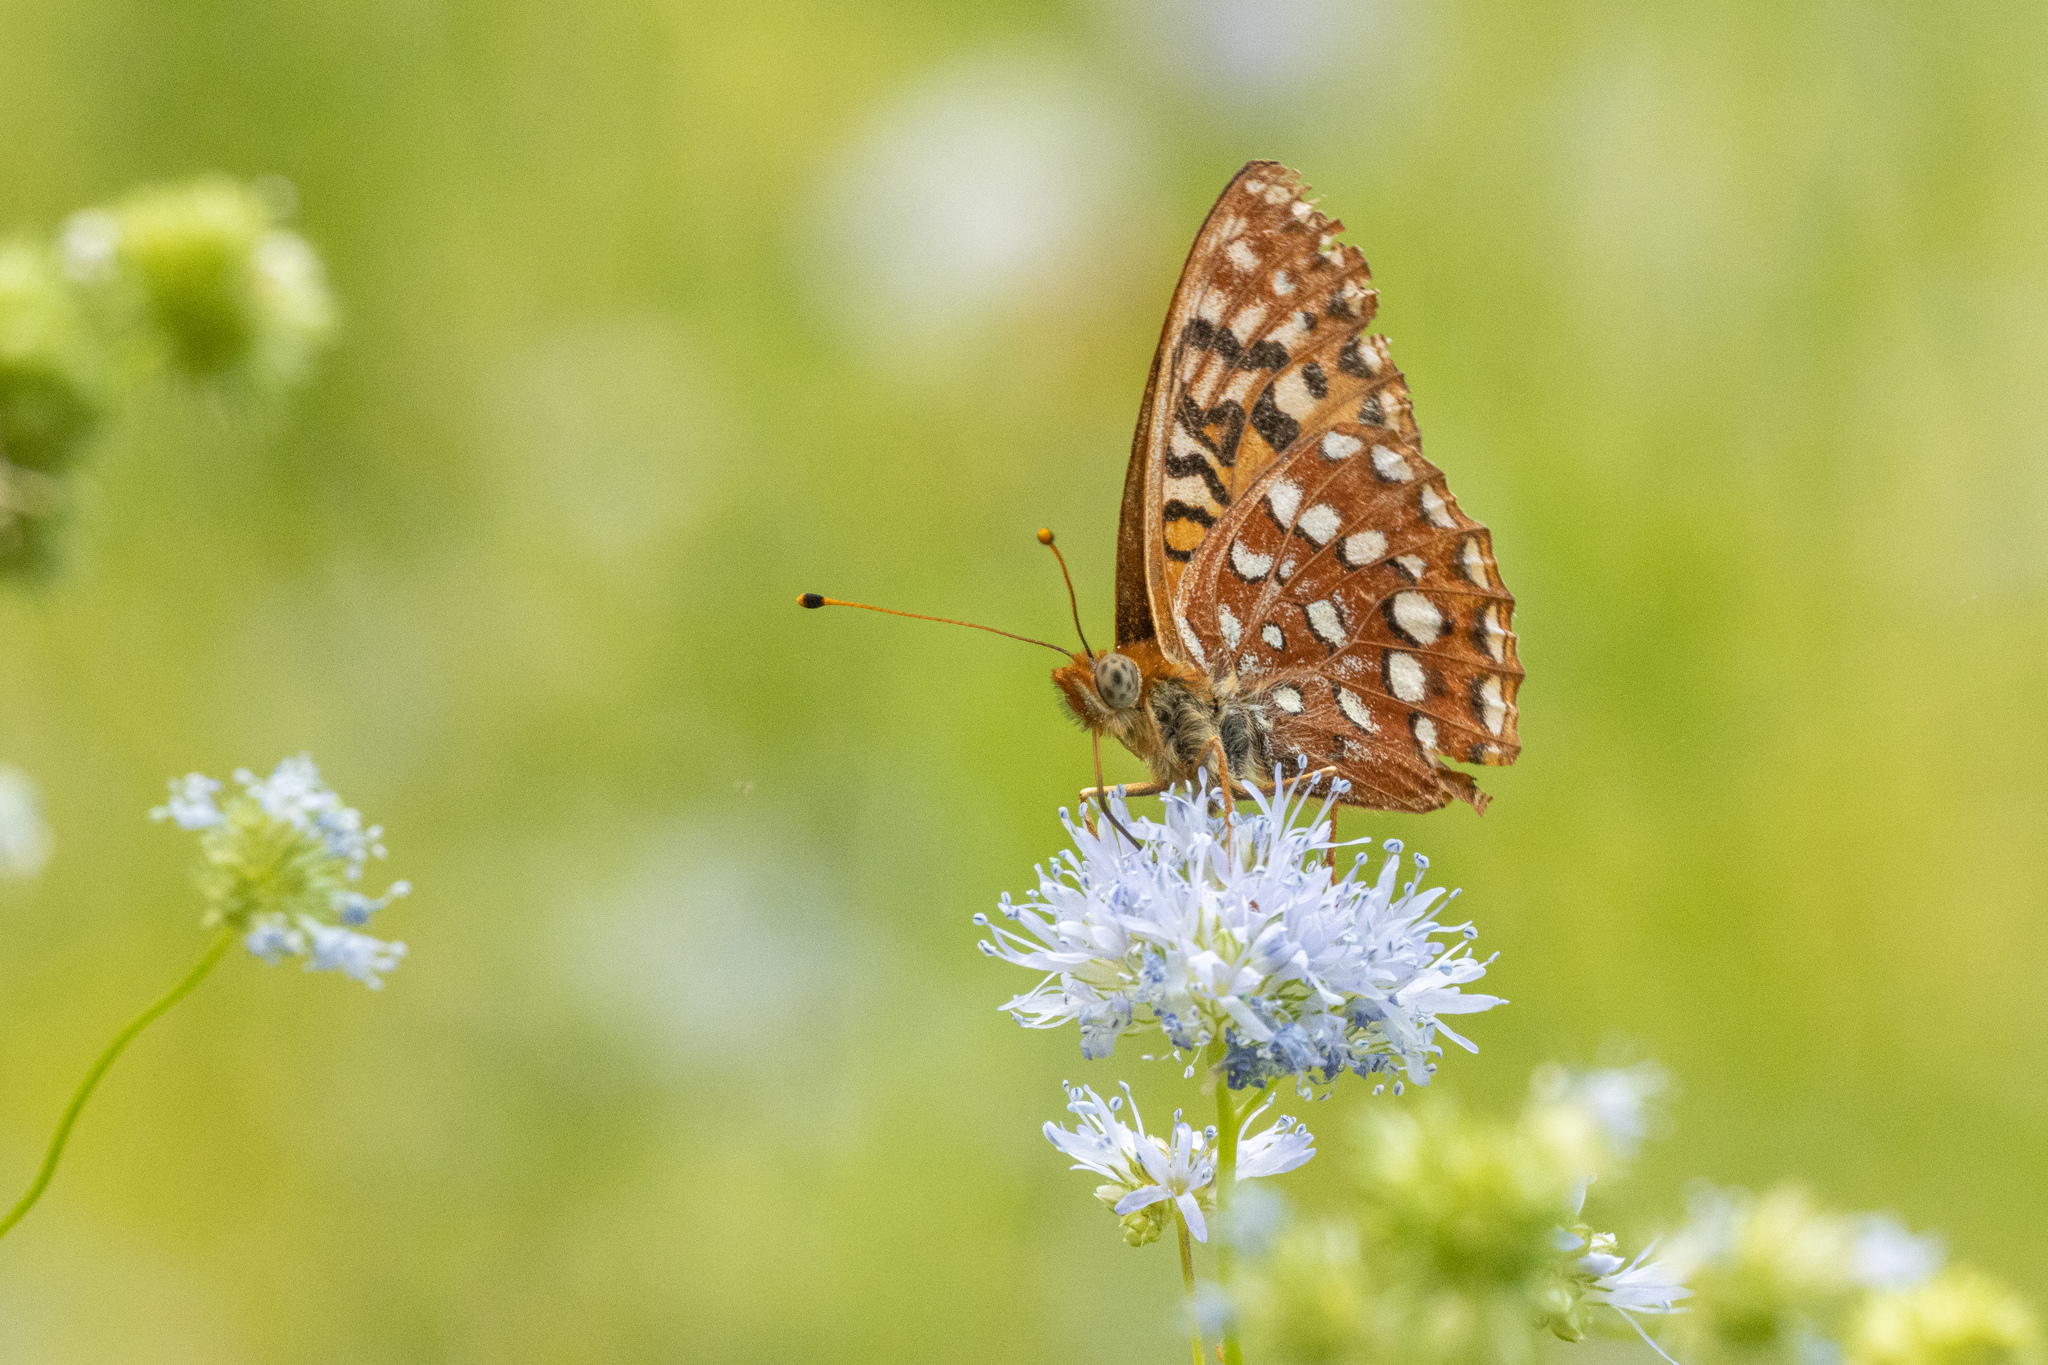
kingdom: Animalia
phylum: Arthropoda
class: Insecta
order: Lepidoptera
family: Nymphalidae
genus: Speyeria
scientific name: Speyeria hydaspe
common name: Hydaspe fritillary
